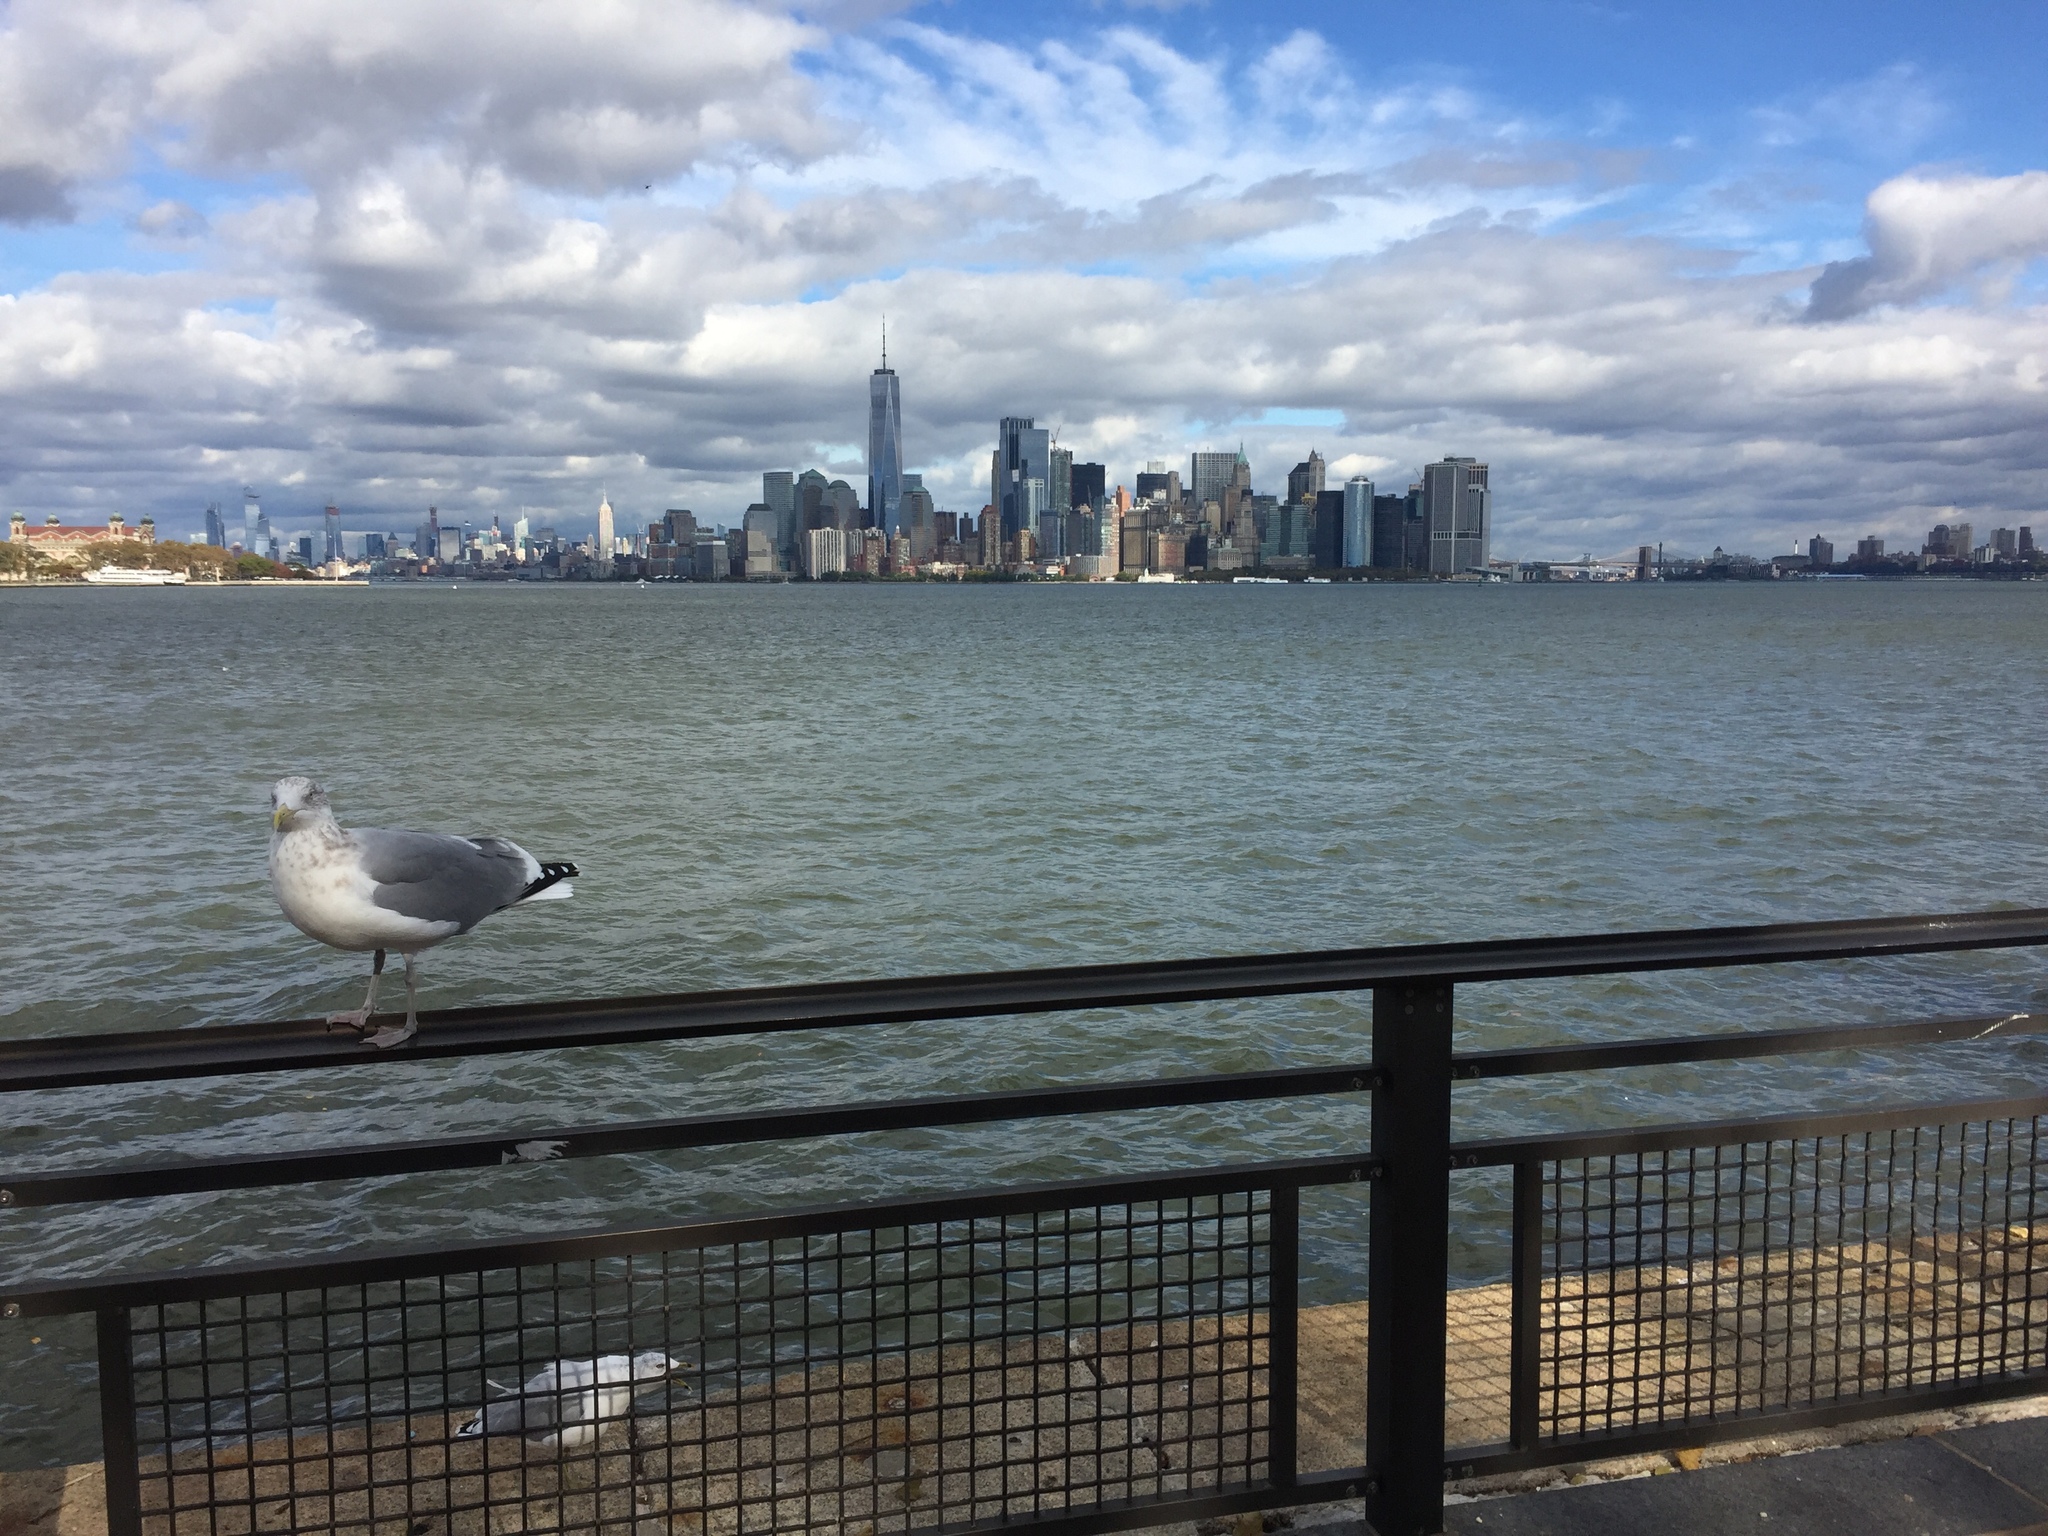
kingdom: Animalia
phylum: Chordata
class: Aves
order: Charadriiformes
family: Laridae
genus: Larus
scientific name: Larus argentatus
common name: Herring gull
